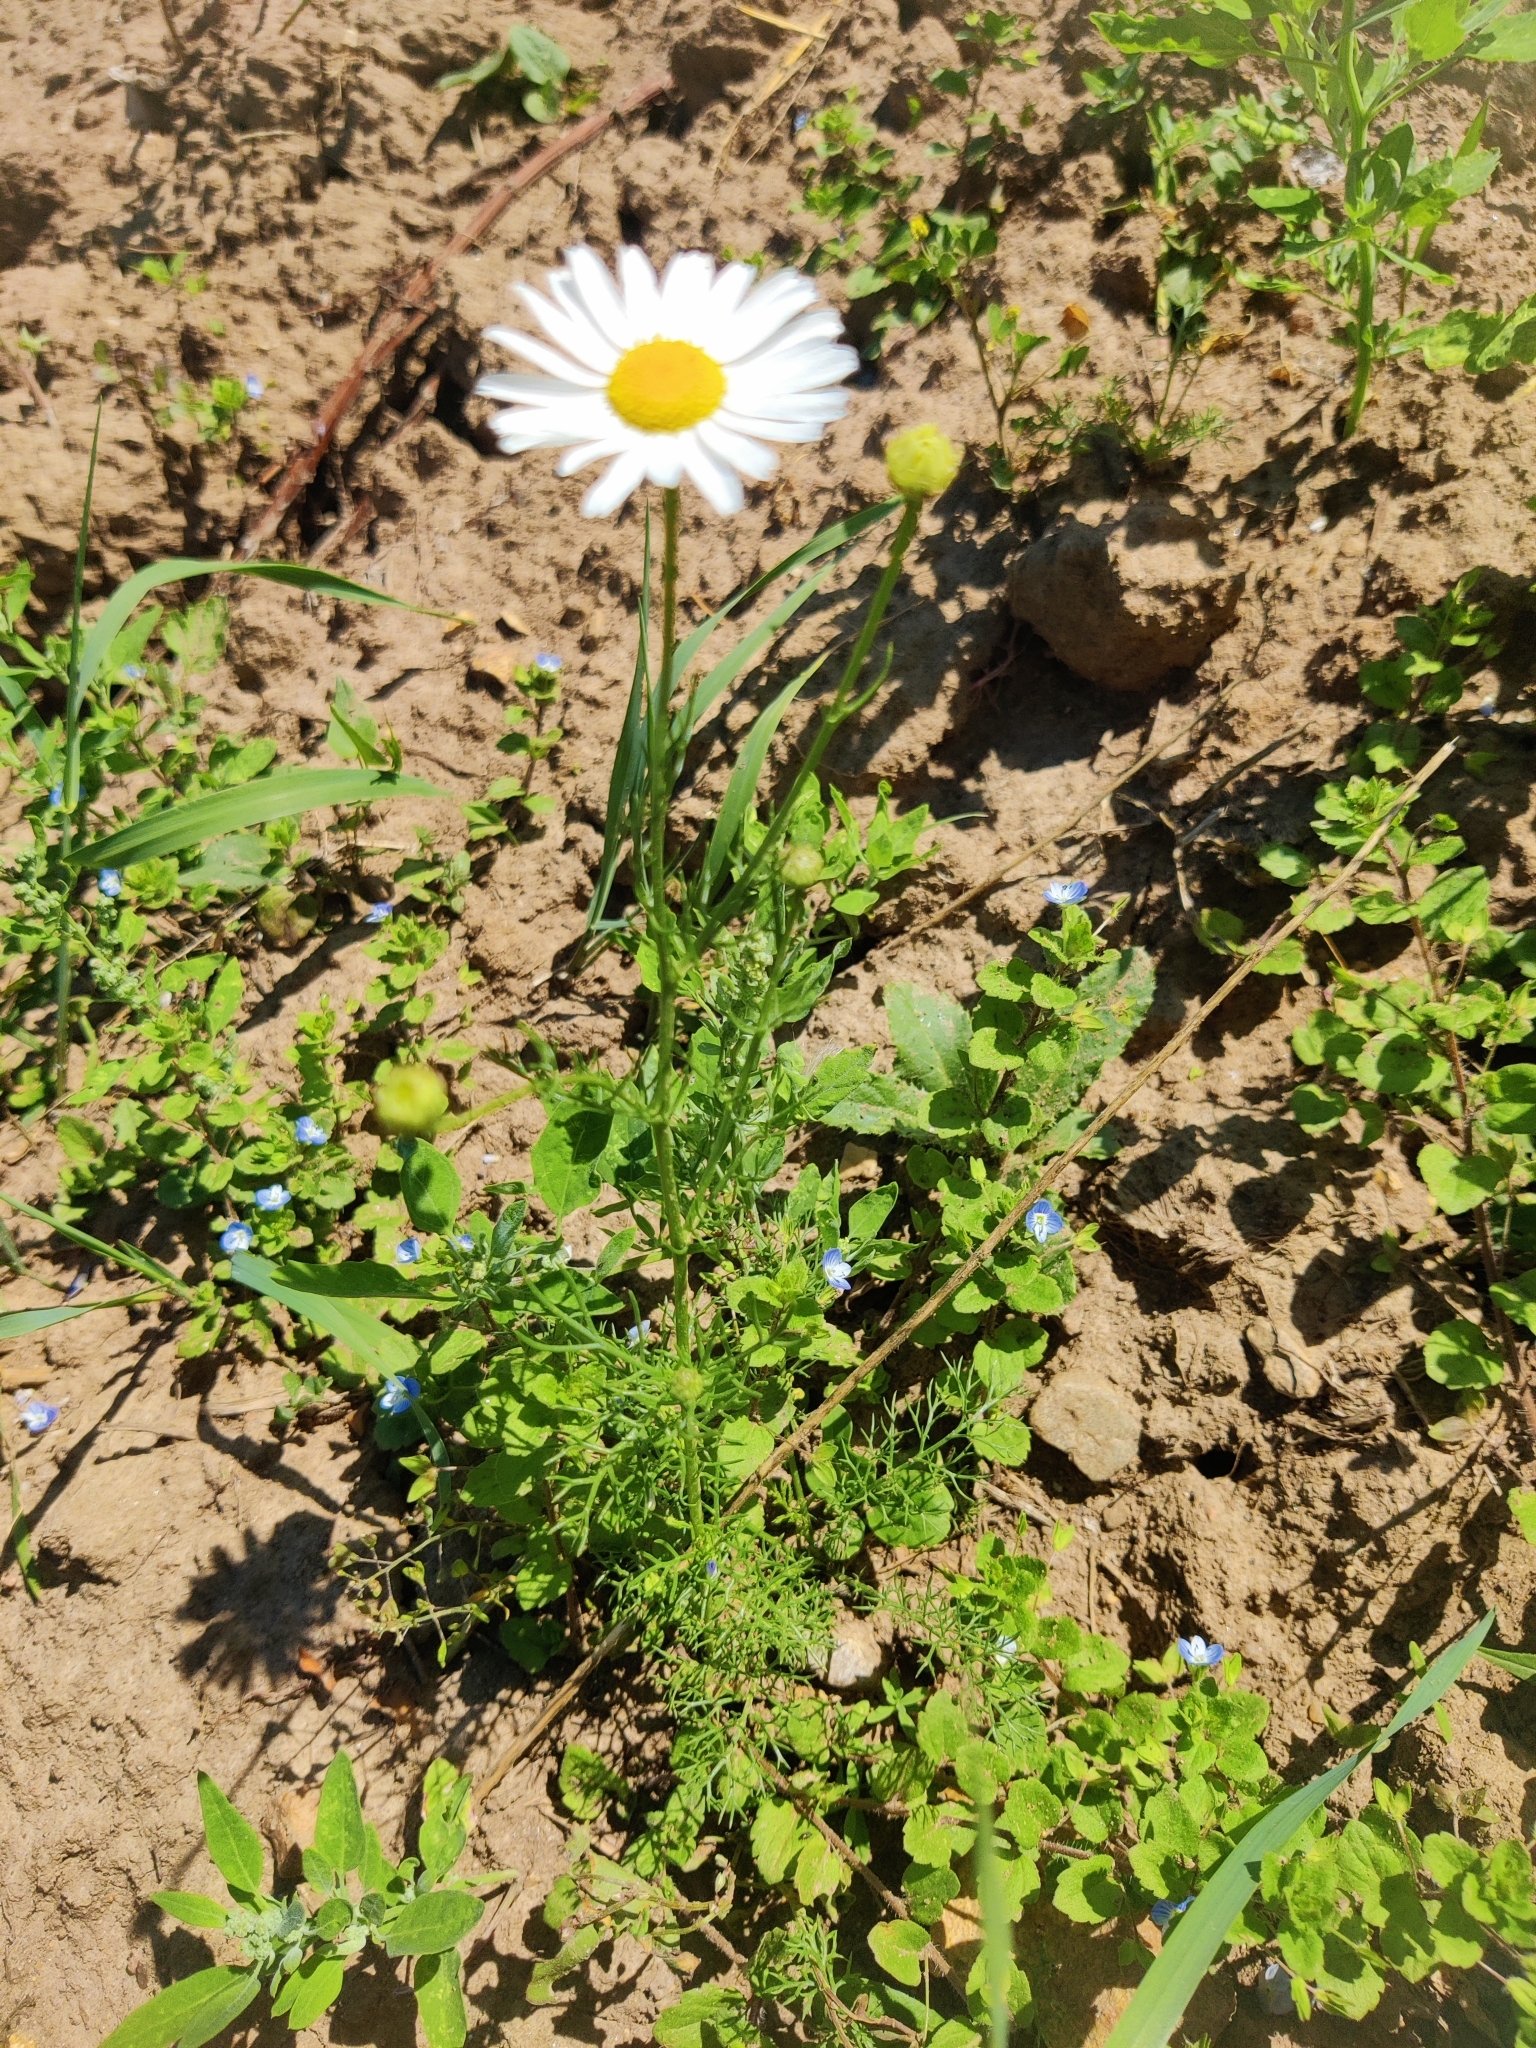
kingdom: Plantae
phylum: Tracheophyta
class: Magnoliopsida
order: Asterales
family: Asteraceae
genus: Tripleurospermum
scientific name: Tripleurospermum inodorum
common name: Scentless mayweed
